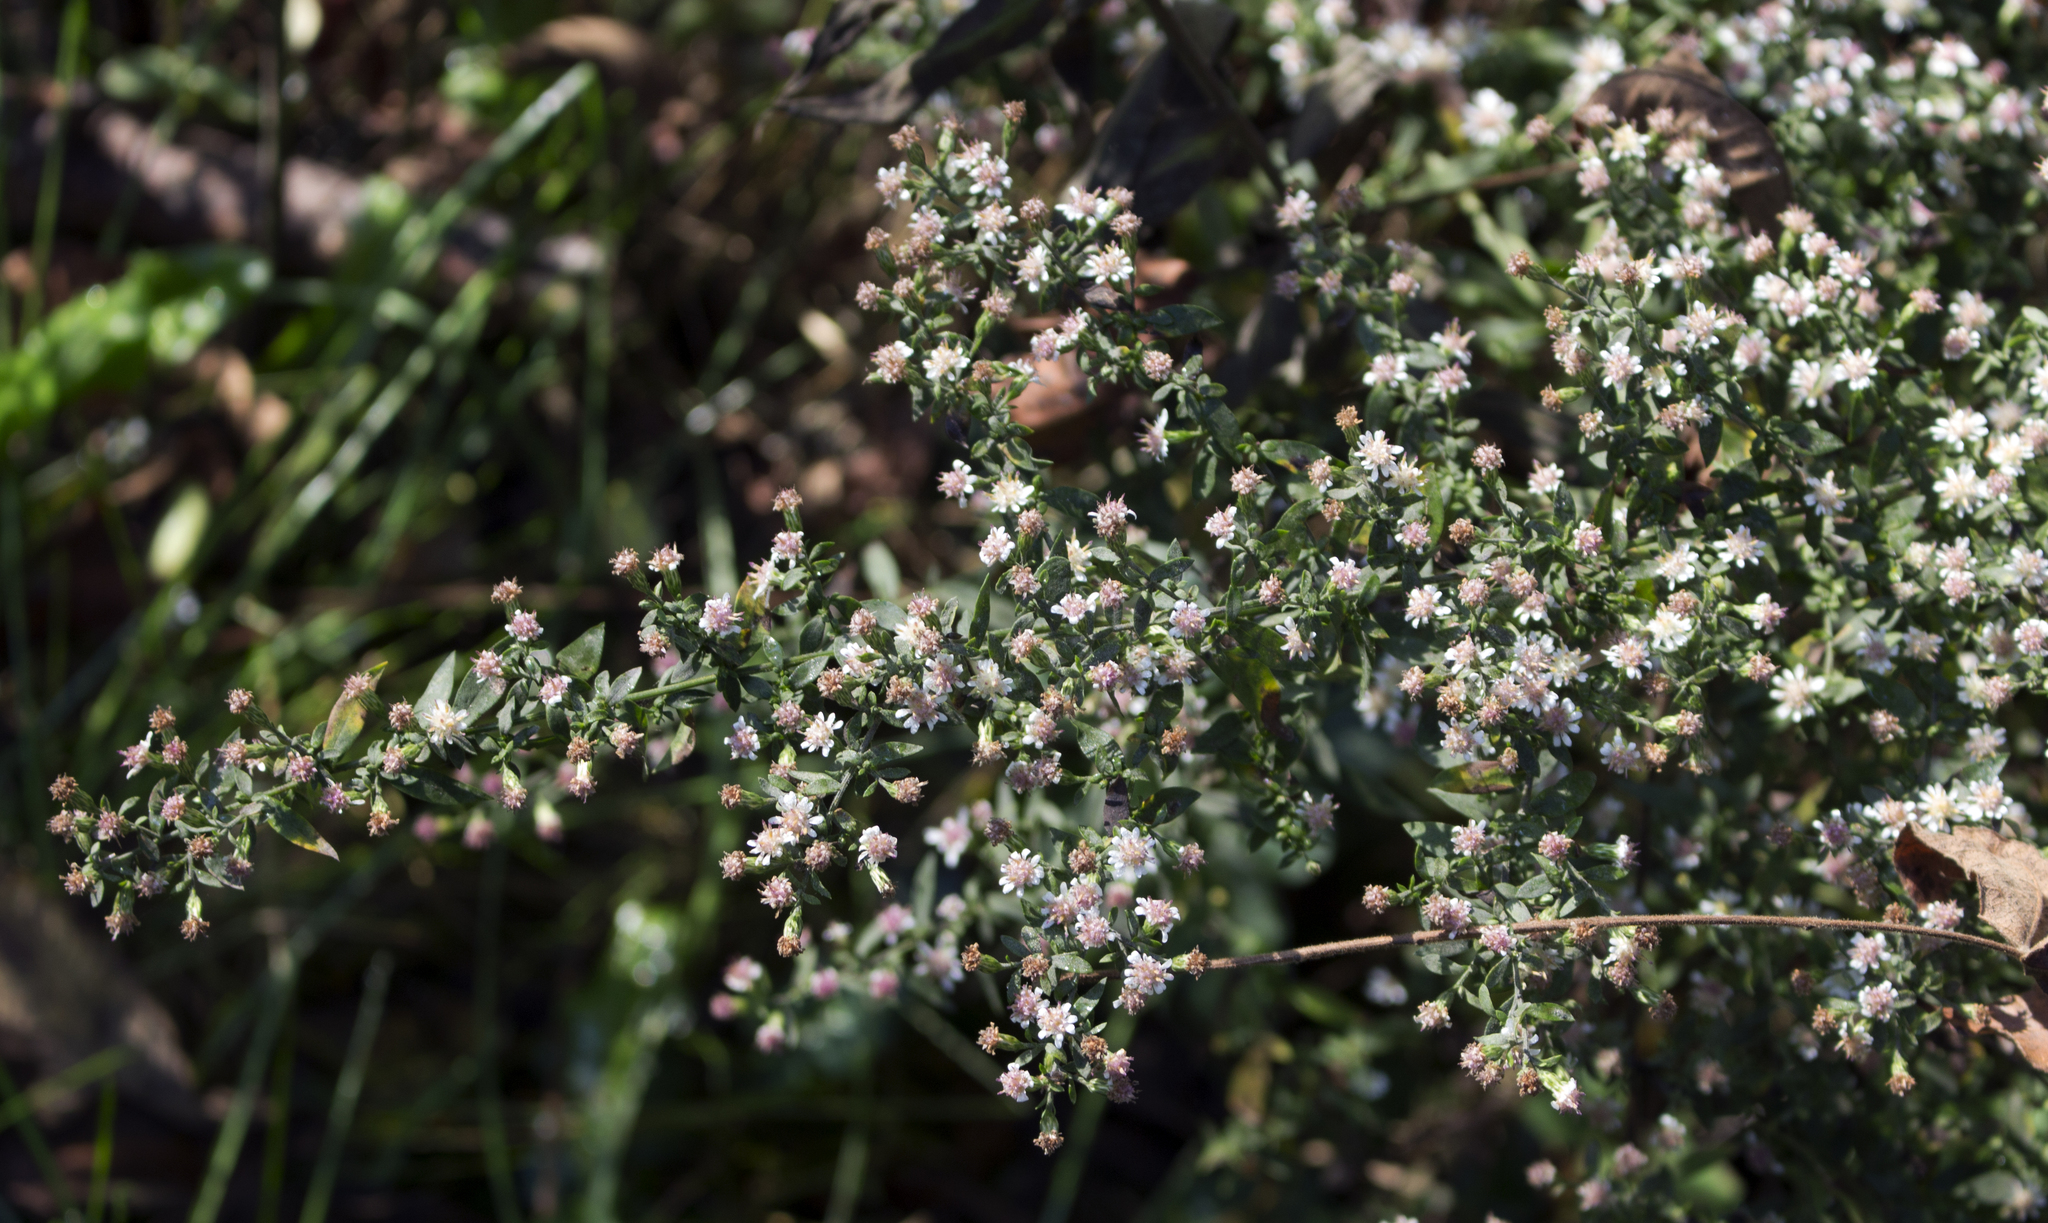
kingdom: Plantae
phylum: Tracheophyta
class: Magnoliopsida
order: Asterales
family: Asteraceae
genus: Symphyotrichum
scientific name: Symphyotrichum lateriflorum
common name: Calico aster
